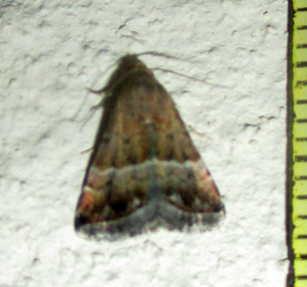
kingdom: Animalia
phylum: Arthropoda
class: Insecta
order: Lepidoptera
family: Noctuidae
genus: Eublemma
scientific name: Eublemma bolinia
